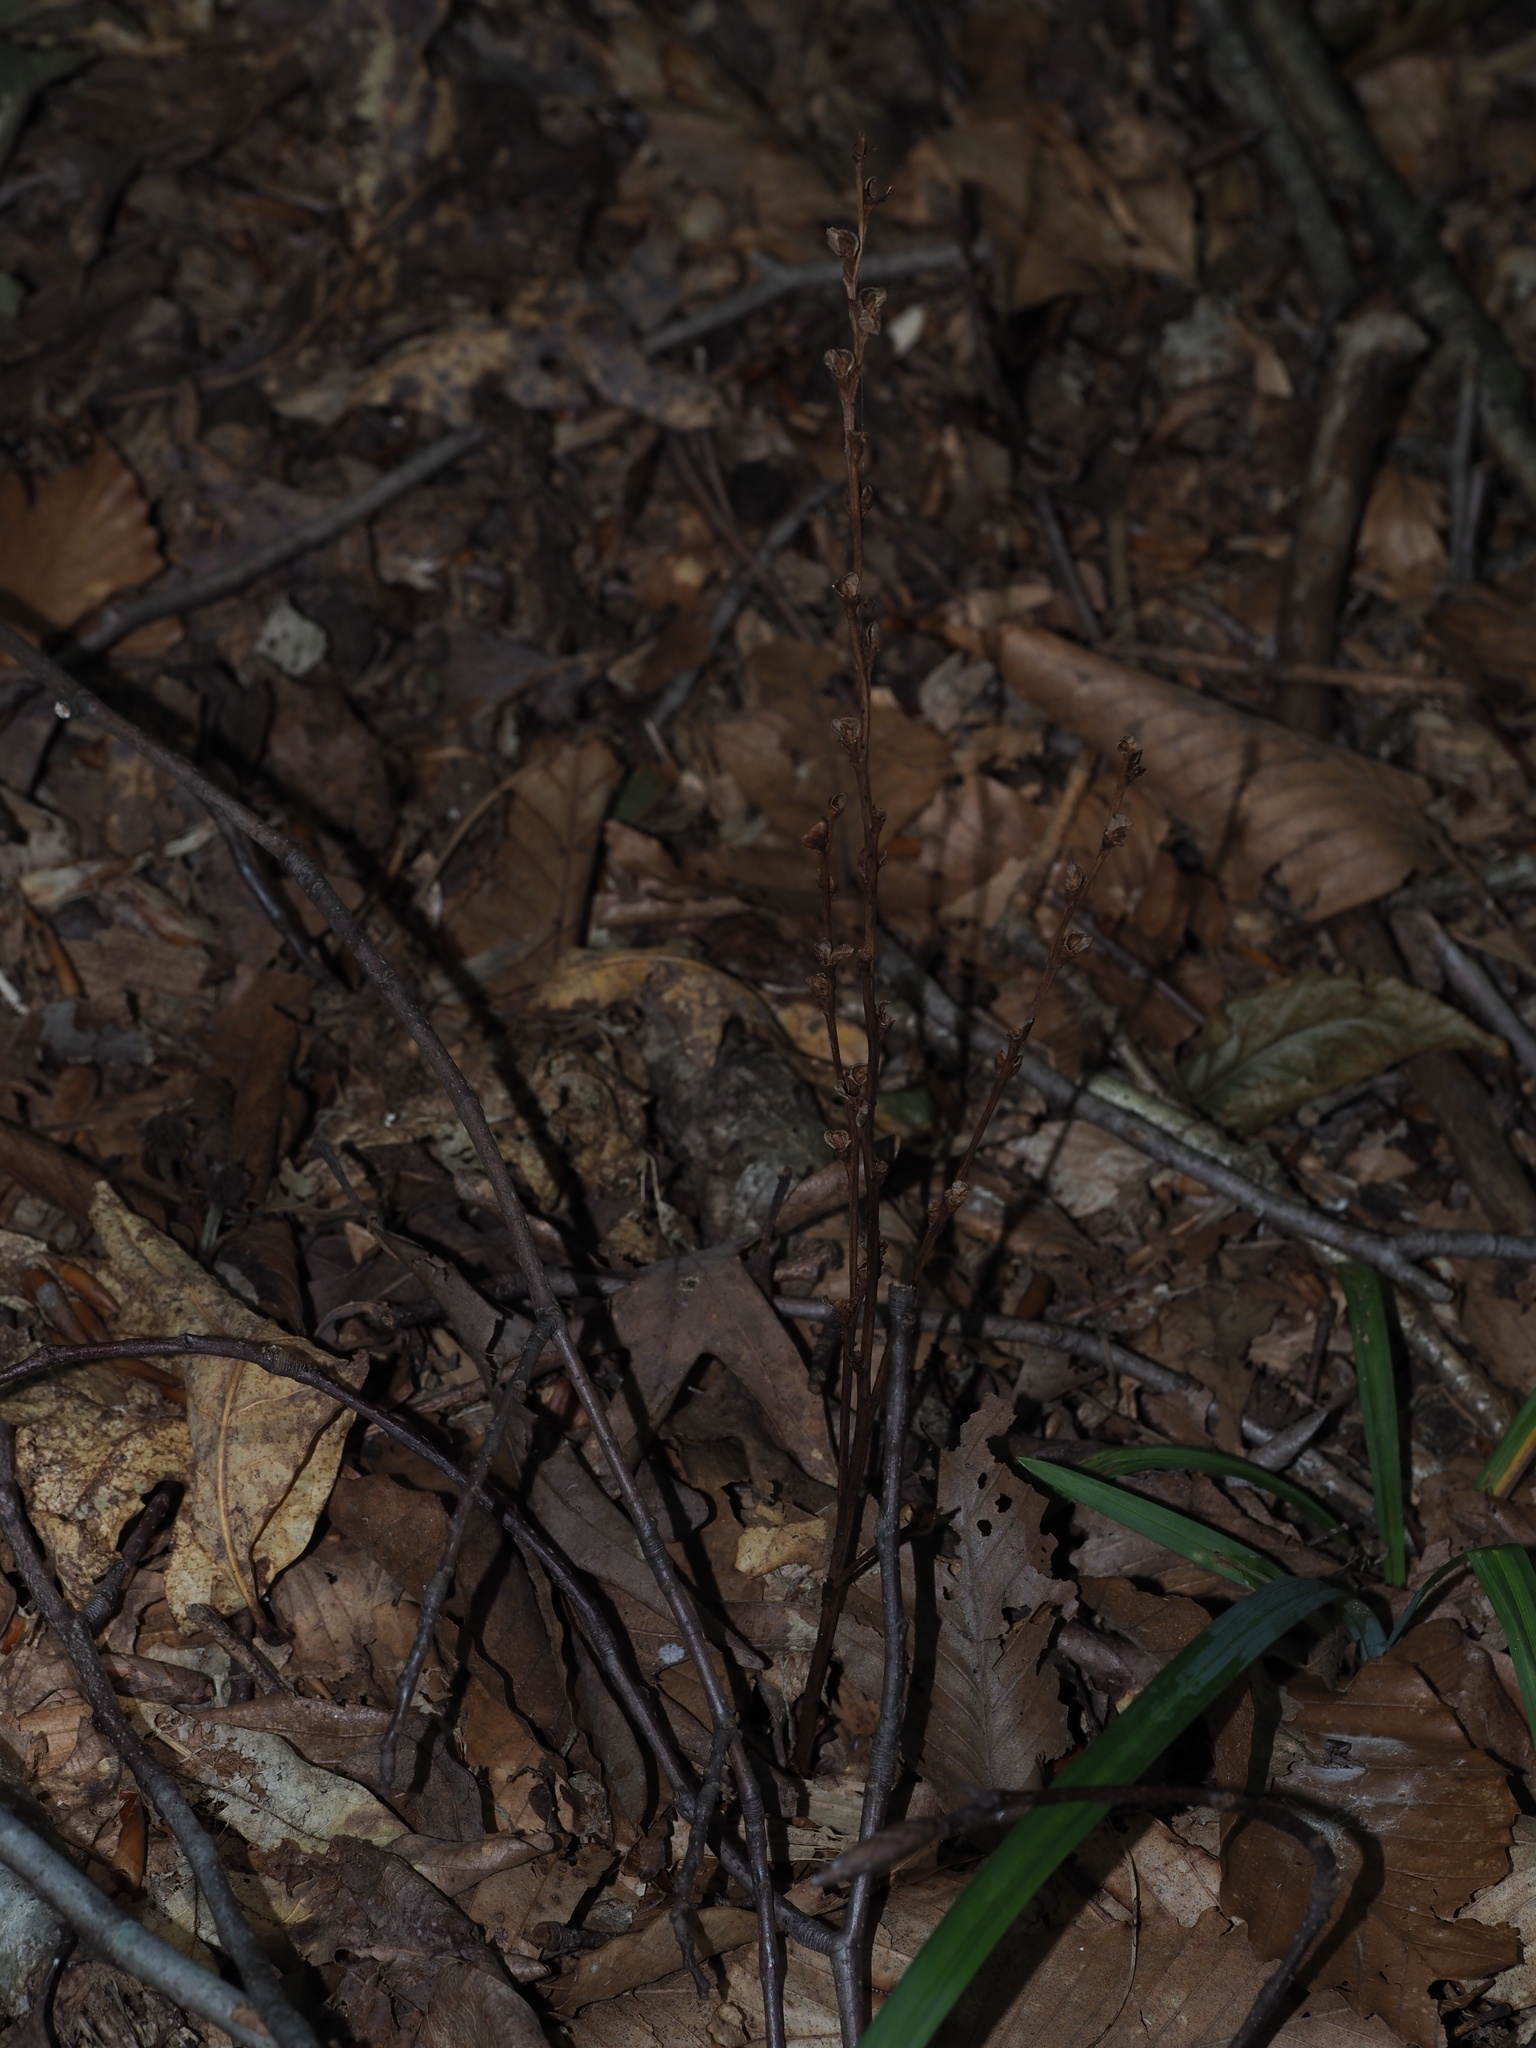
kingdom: Plantae
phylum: Tracheophyta
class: Magnoliopsida
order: Lamiales
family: Orobanchaceae
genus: Epifagus
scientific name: Epifagus virginiana
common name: Beechdrops
